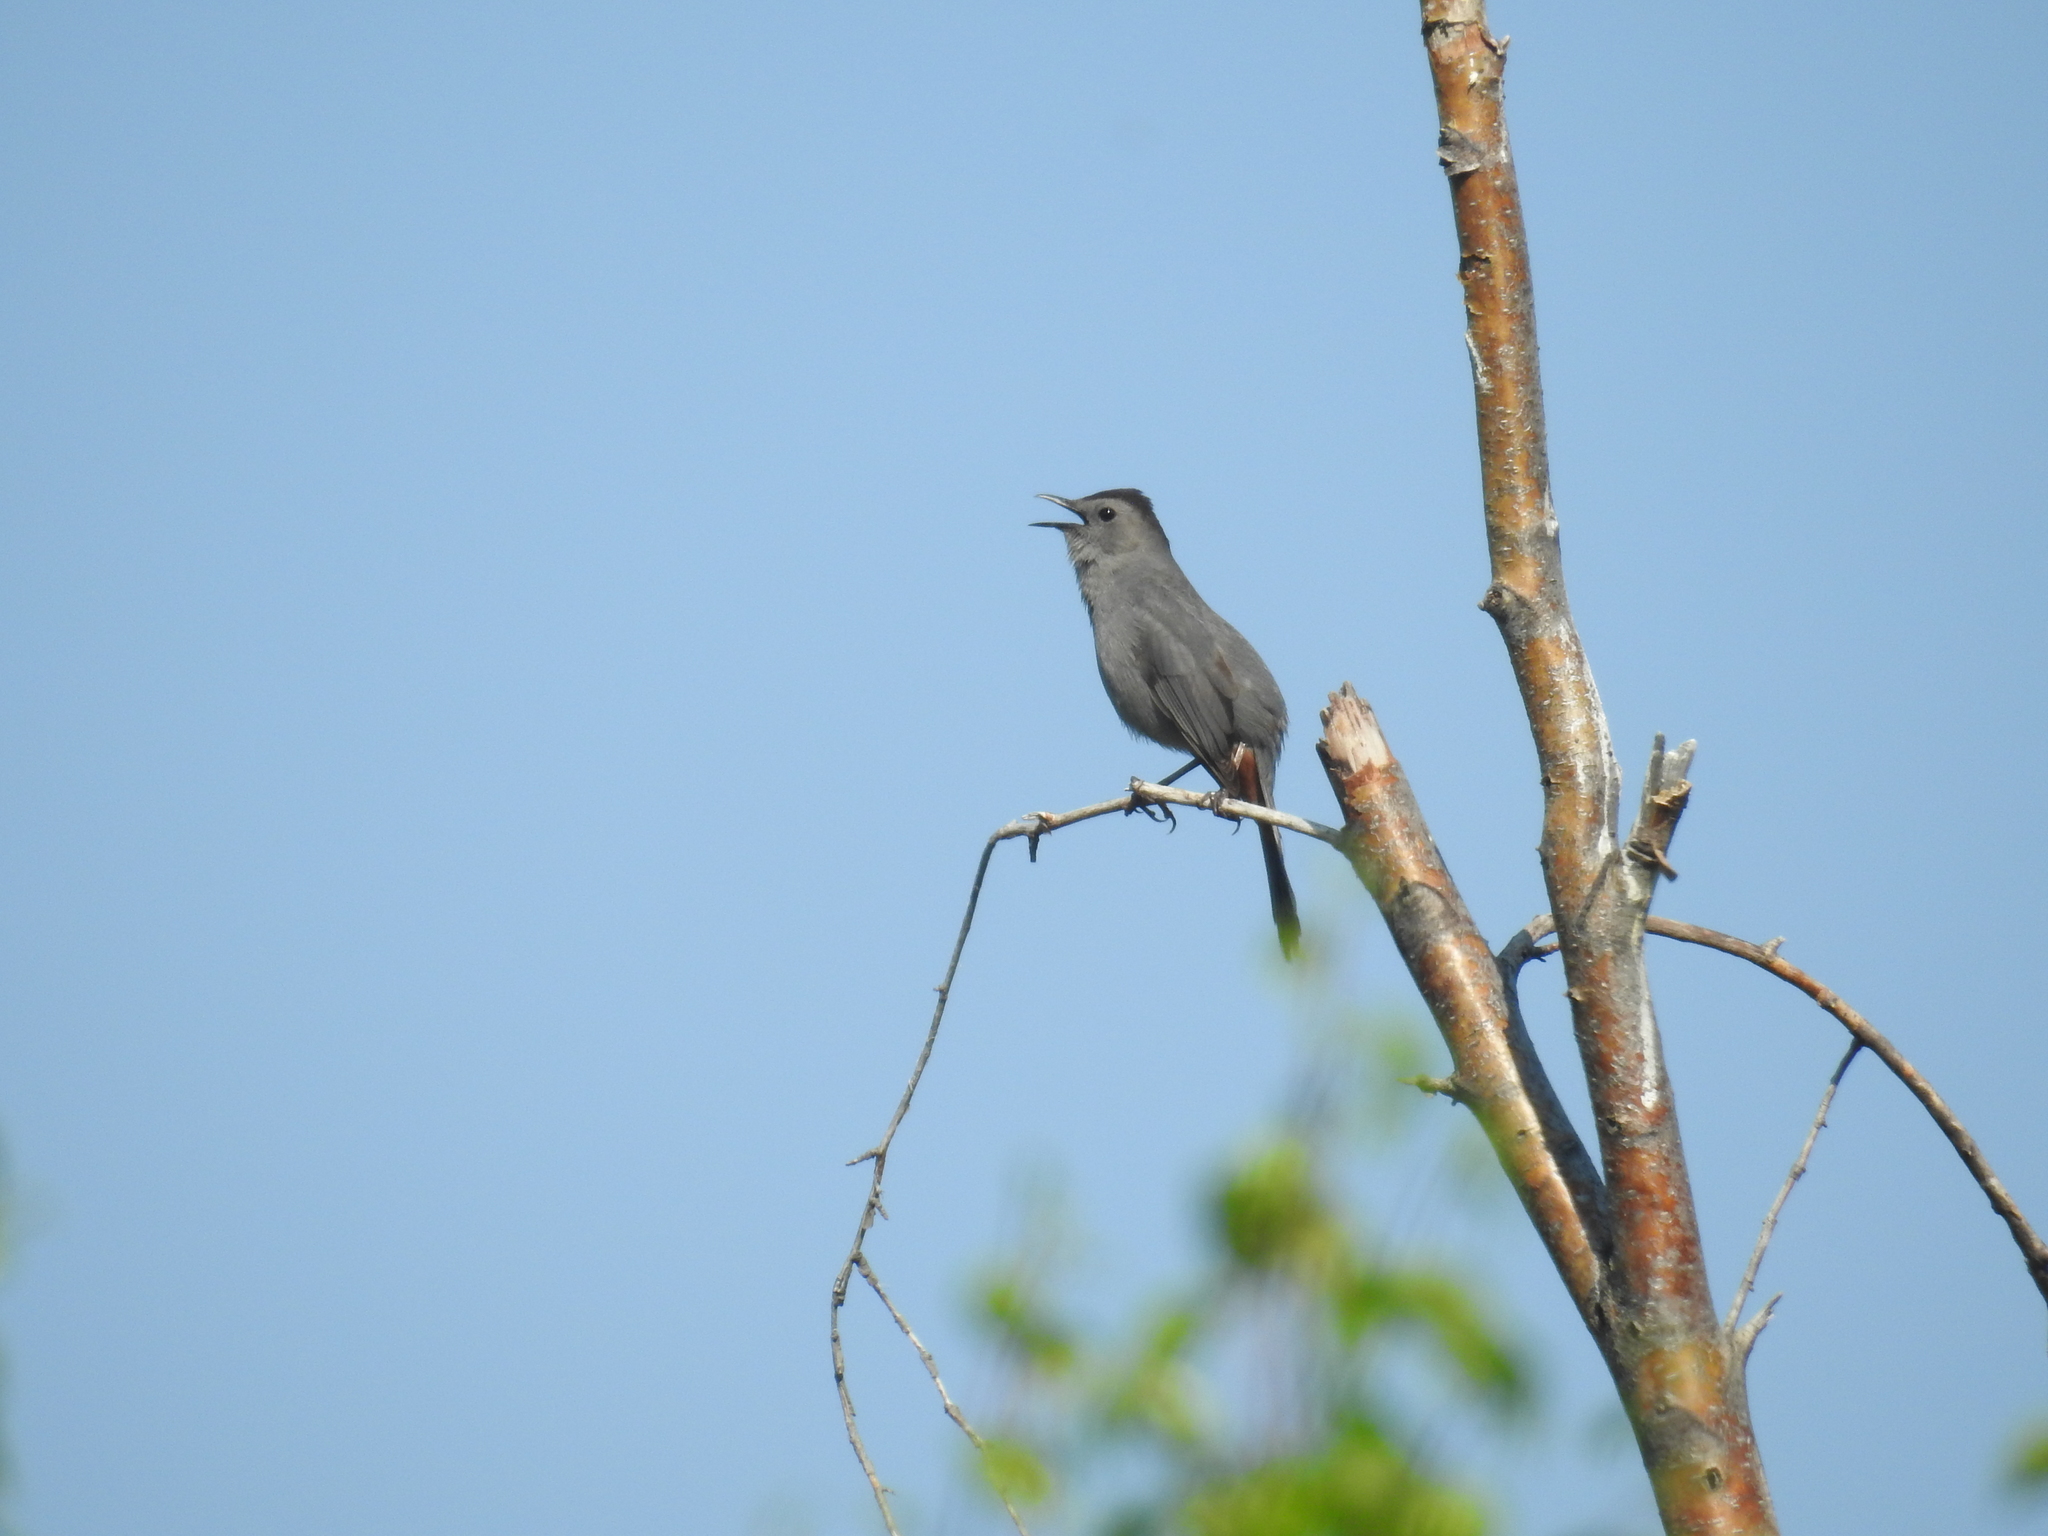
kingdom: Animalia
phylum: Chordata
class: Aves
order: Passeriformes
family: Mimidae
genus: Dumetella
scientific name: Dumetella carolinensis
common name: Gray catbird
